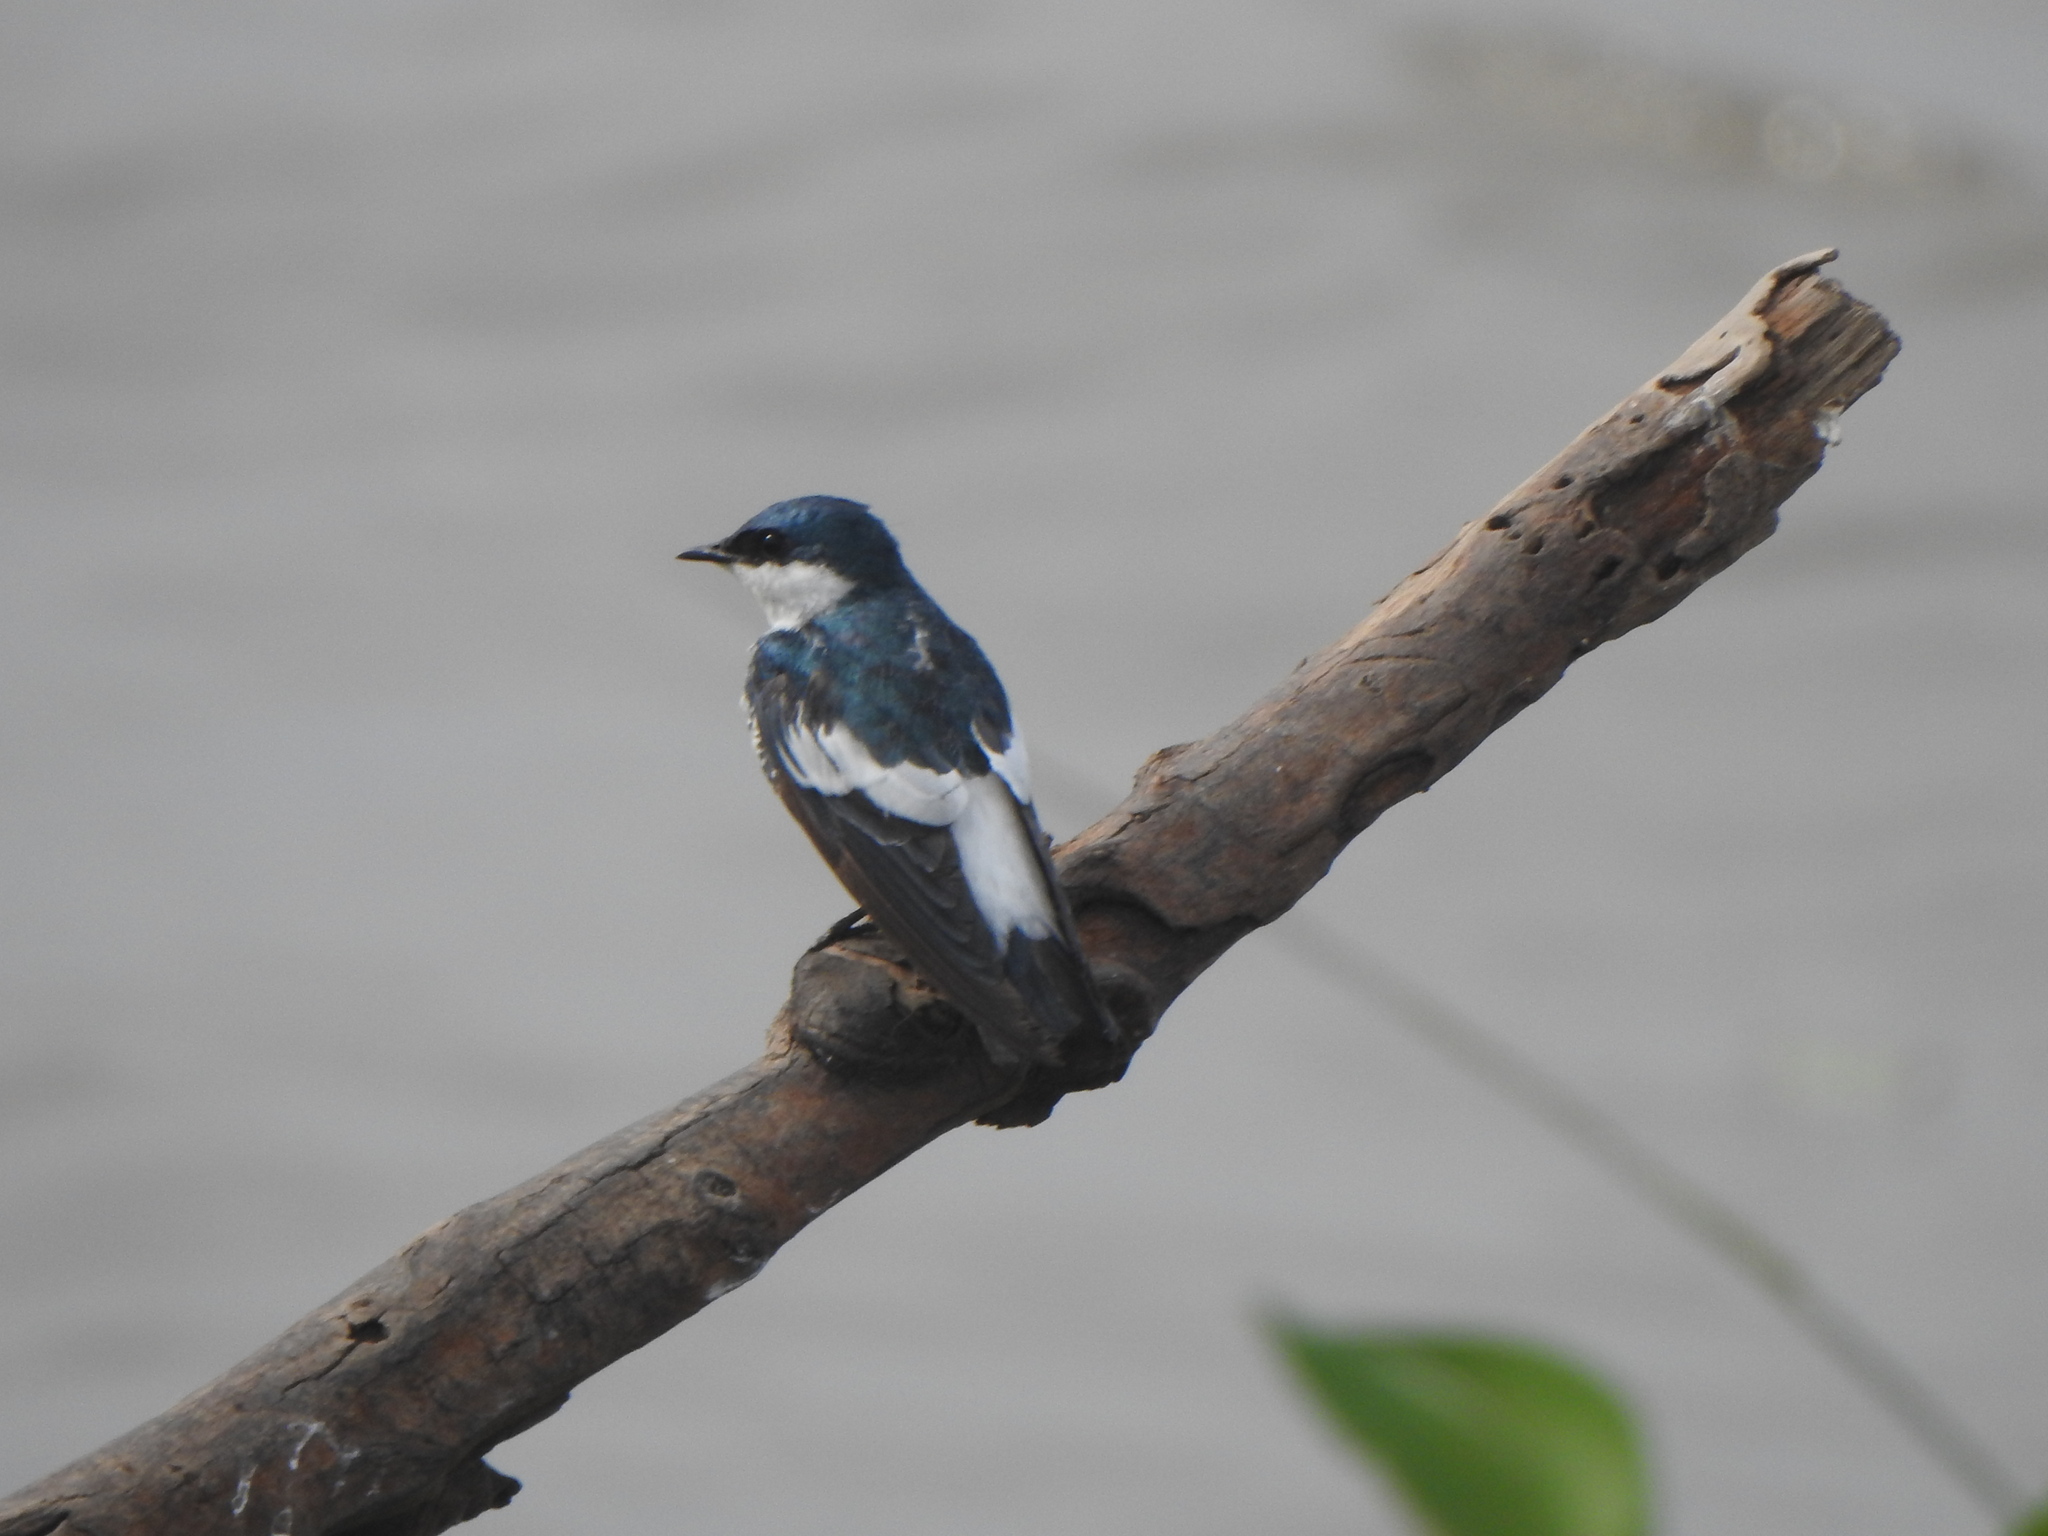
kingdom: Animalia
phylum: Chordata
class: Aves
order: Passeriformes
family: Hirundinidae
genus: Tachycineta
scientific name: Tachycineta albiventer
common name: White-winged swallow
